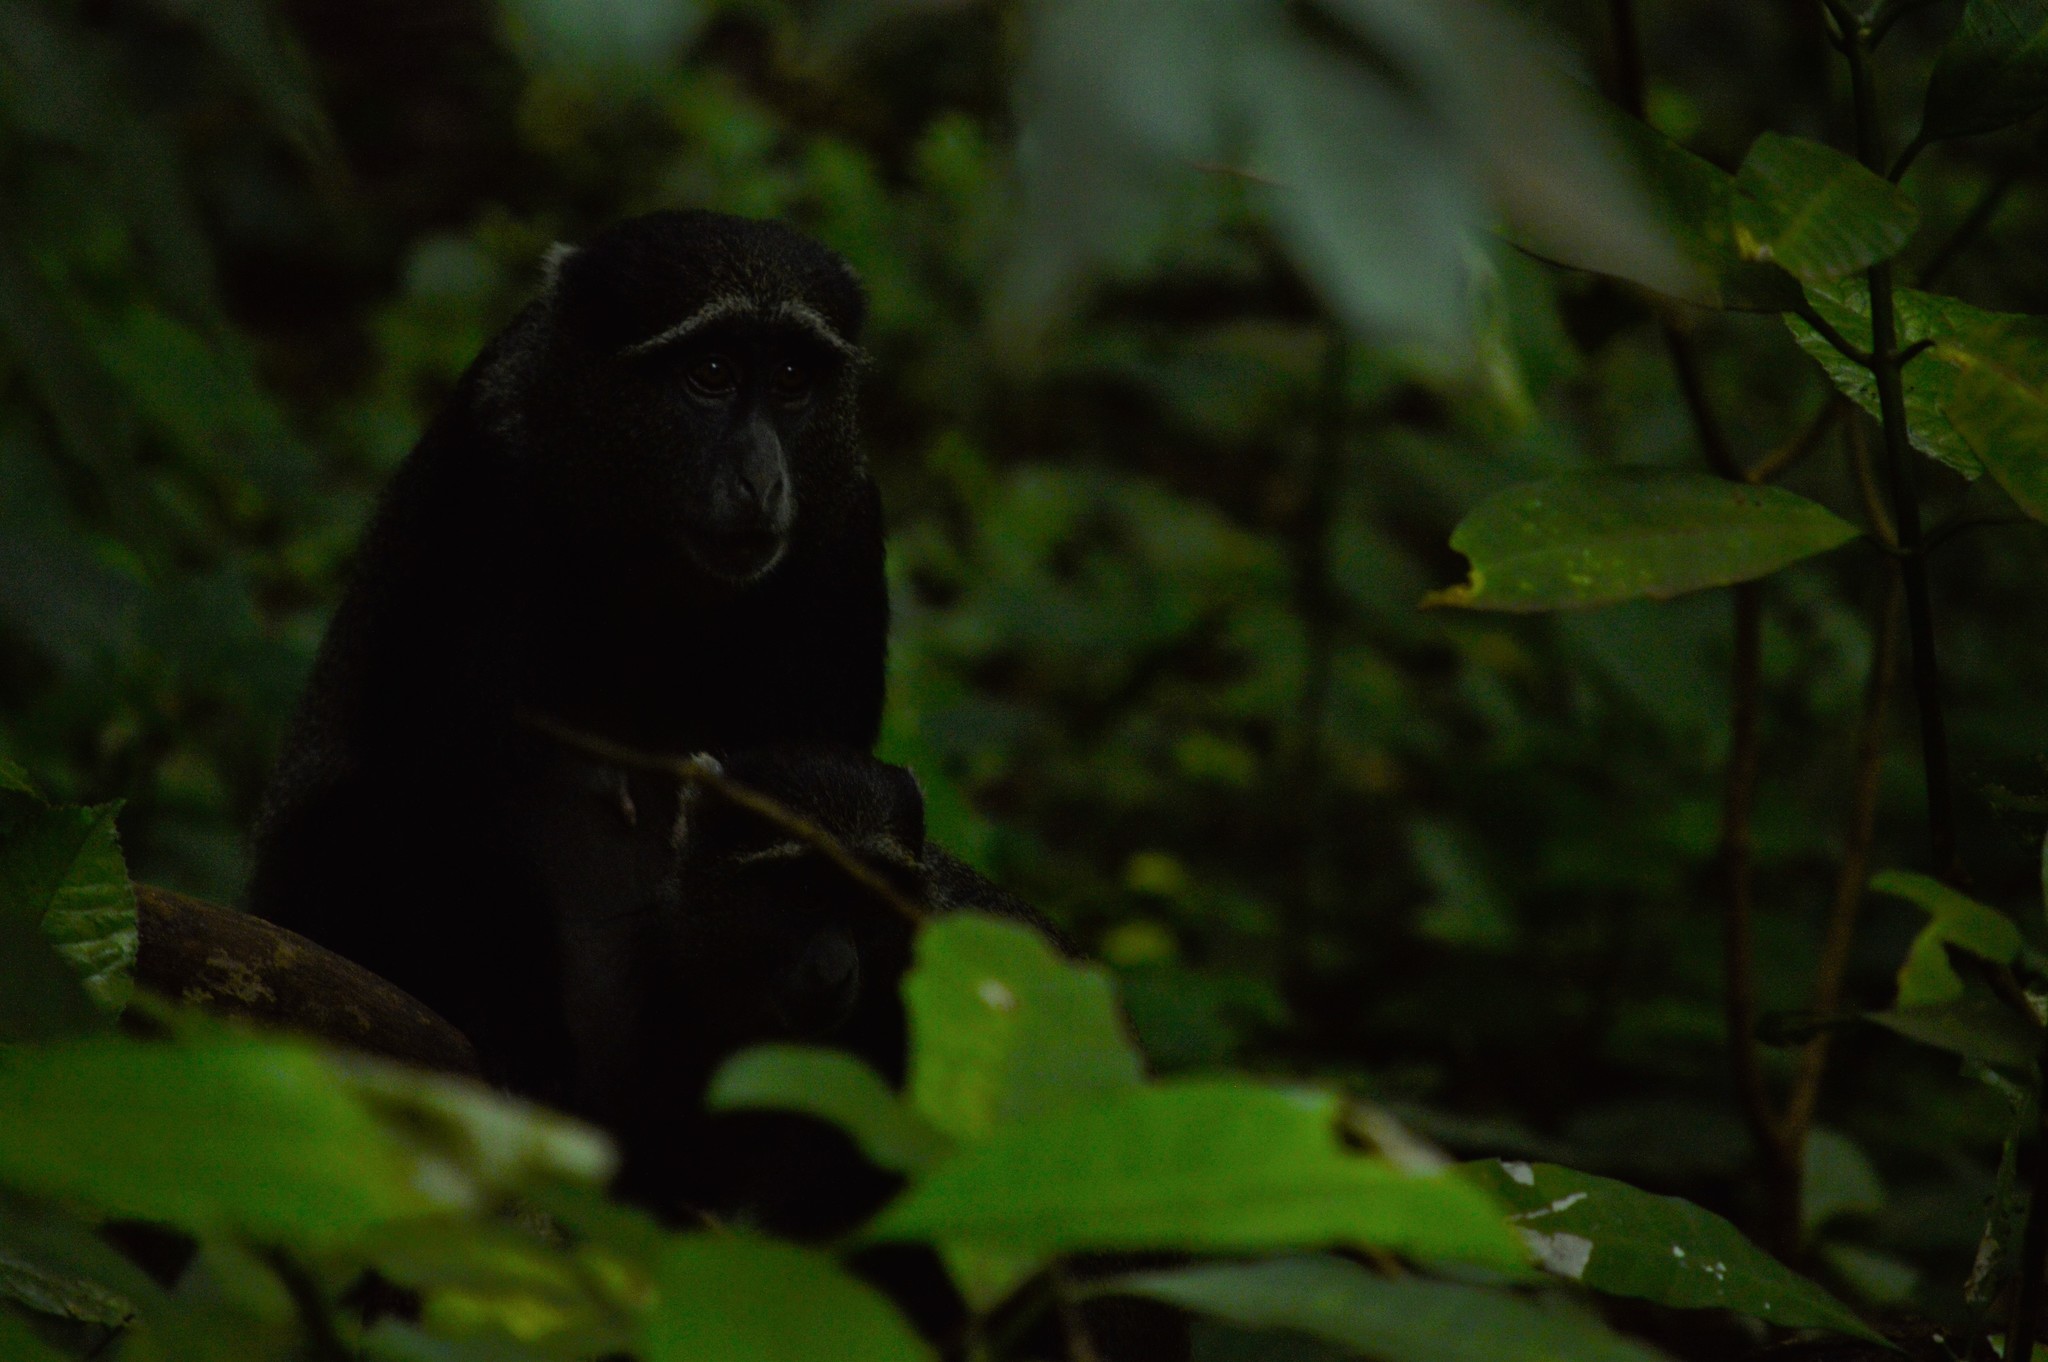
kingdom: Animalia
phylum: Chordata
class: Mammalia
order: Primates
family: Cercopithecidae
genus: Cercopithecus
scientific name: Cercopithecus mitis
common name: Blue monkey
